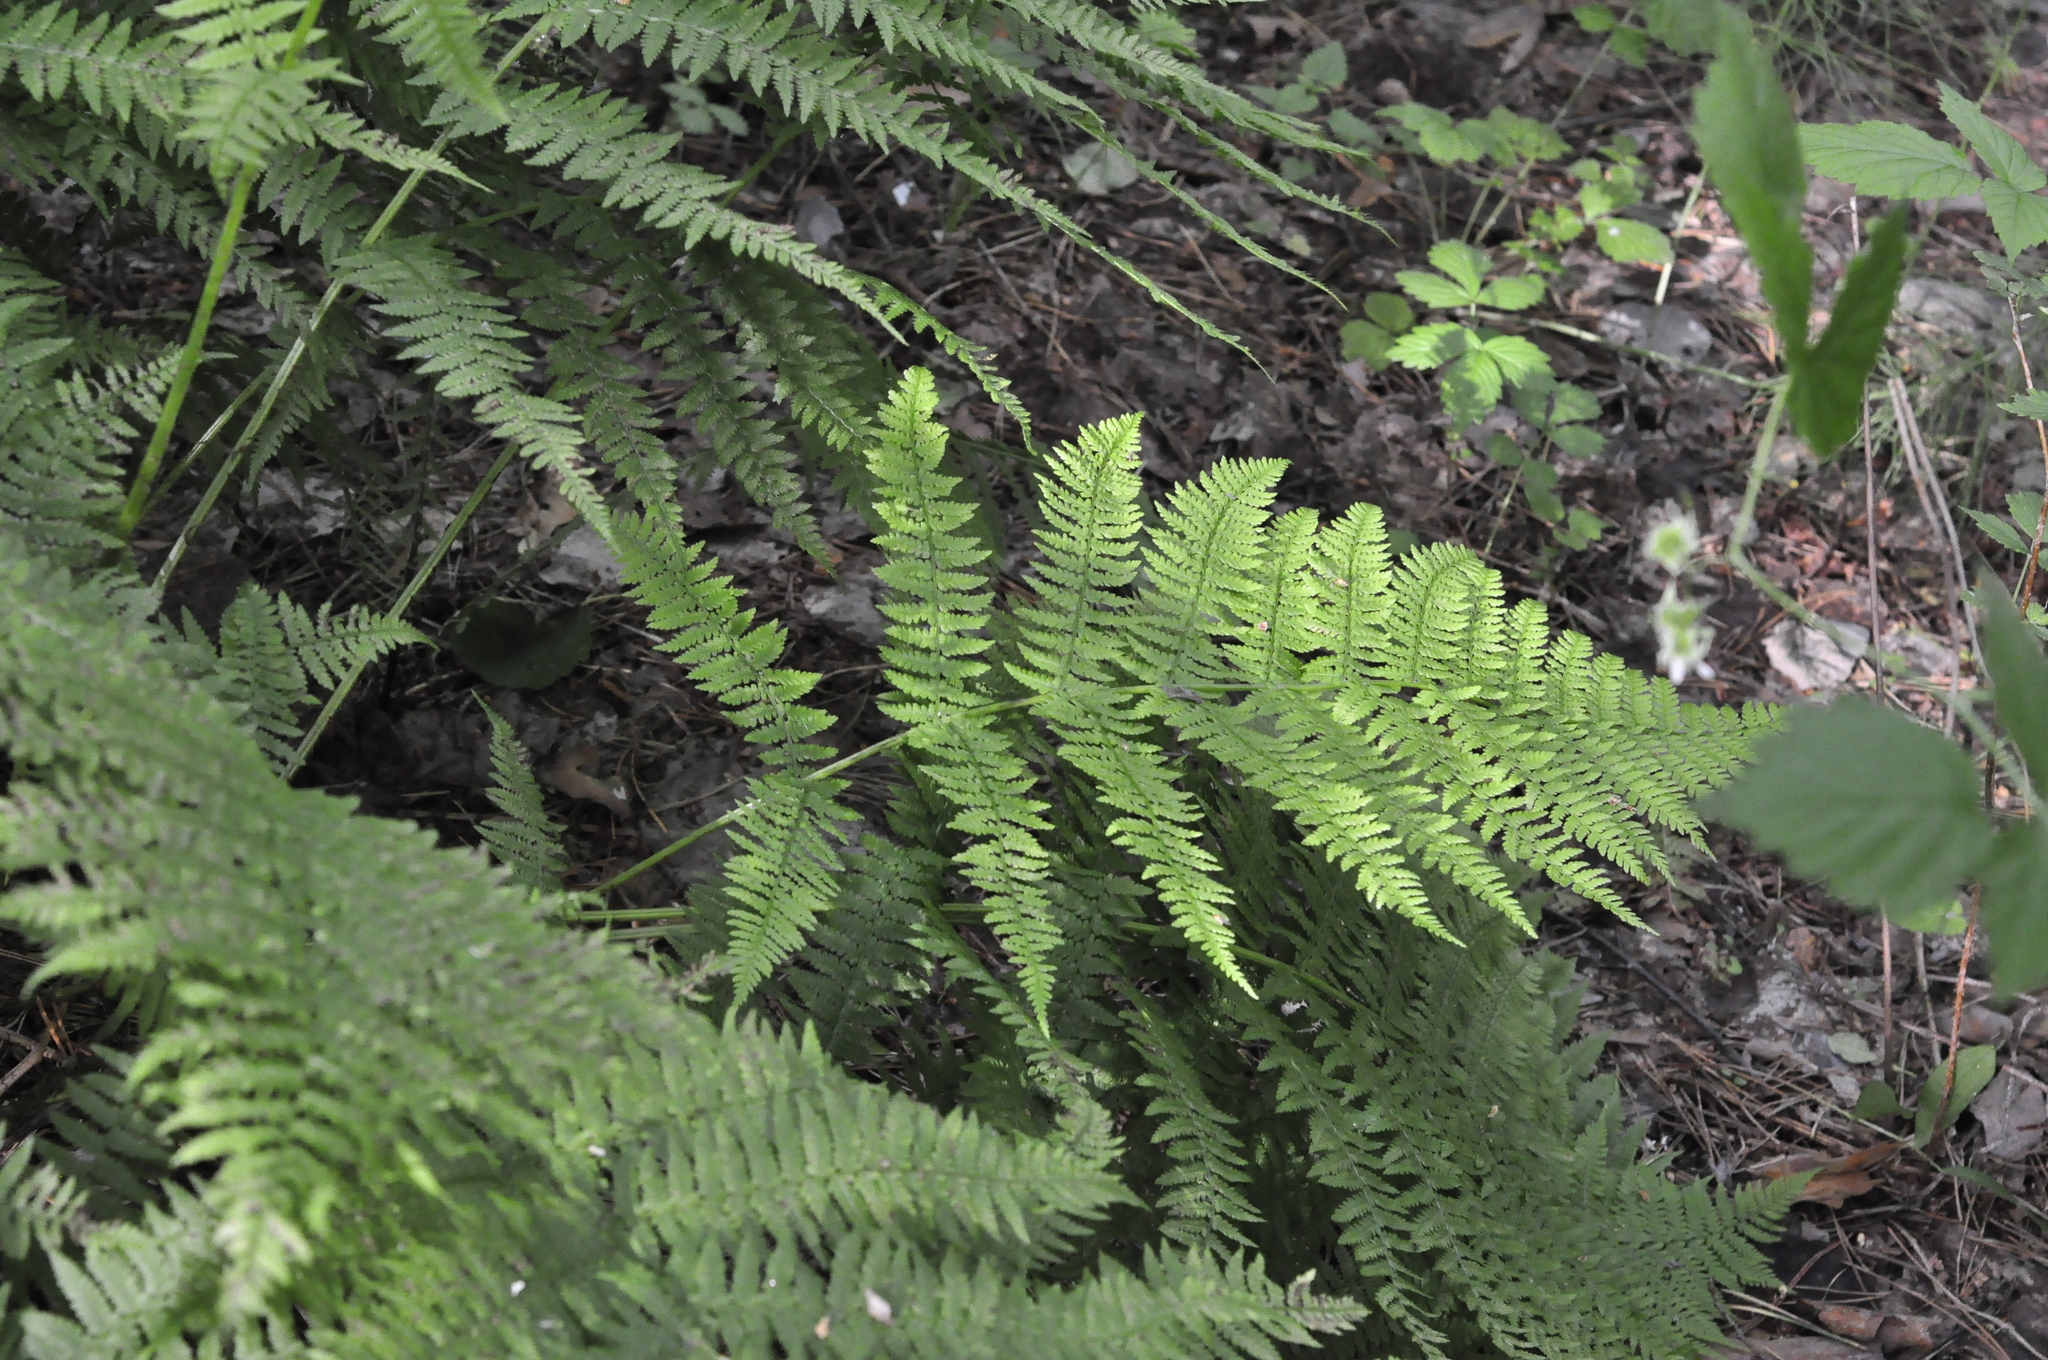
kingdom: Plantae
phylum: Tracheophyta
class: Polypodiopsida
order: Polypodiales
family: Athyriaceae
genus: Athyrium
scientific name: Athyrium filix-femina
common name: Lady fern
